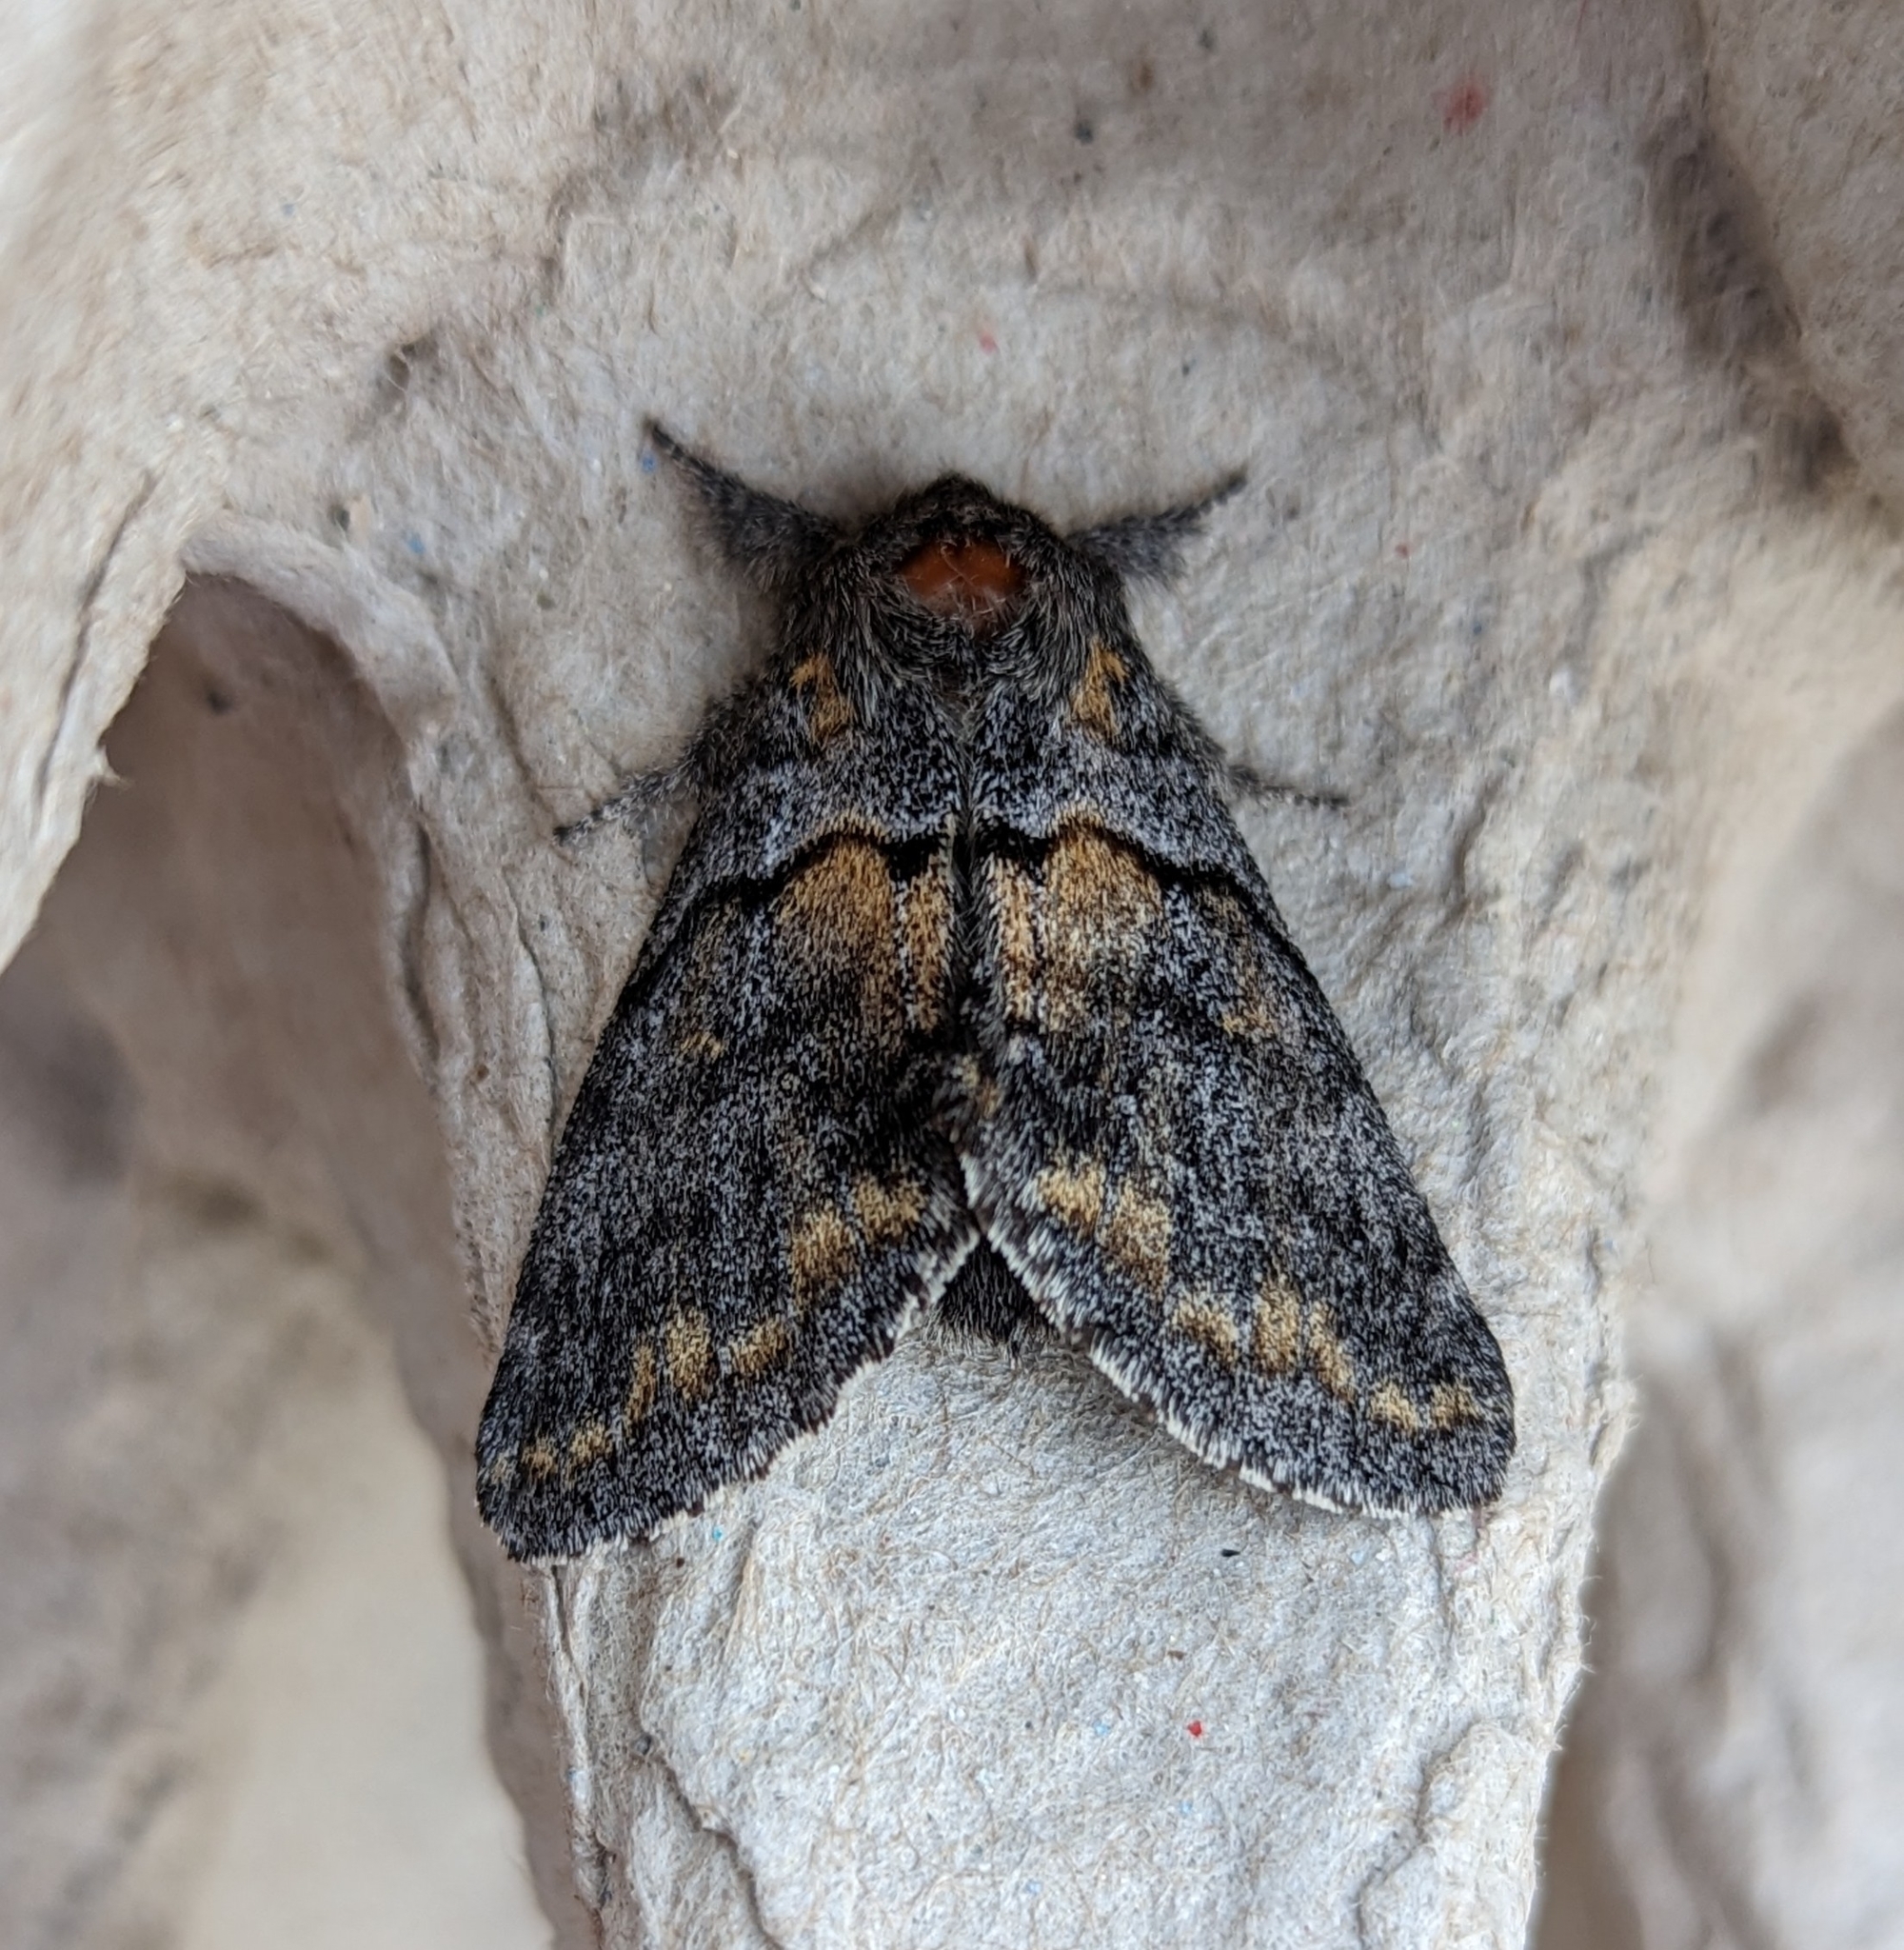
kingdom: Animalia
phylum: Arthropoda
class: Insecta
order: Lepidoptera
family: Notodontidae
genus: Gluphisia
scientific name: Gluphisia severa
